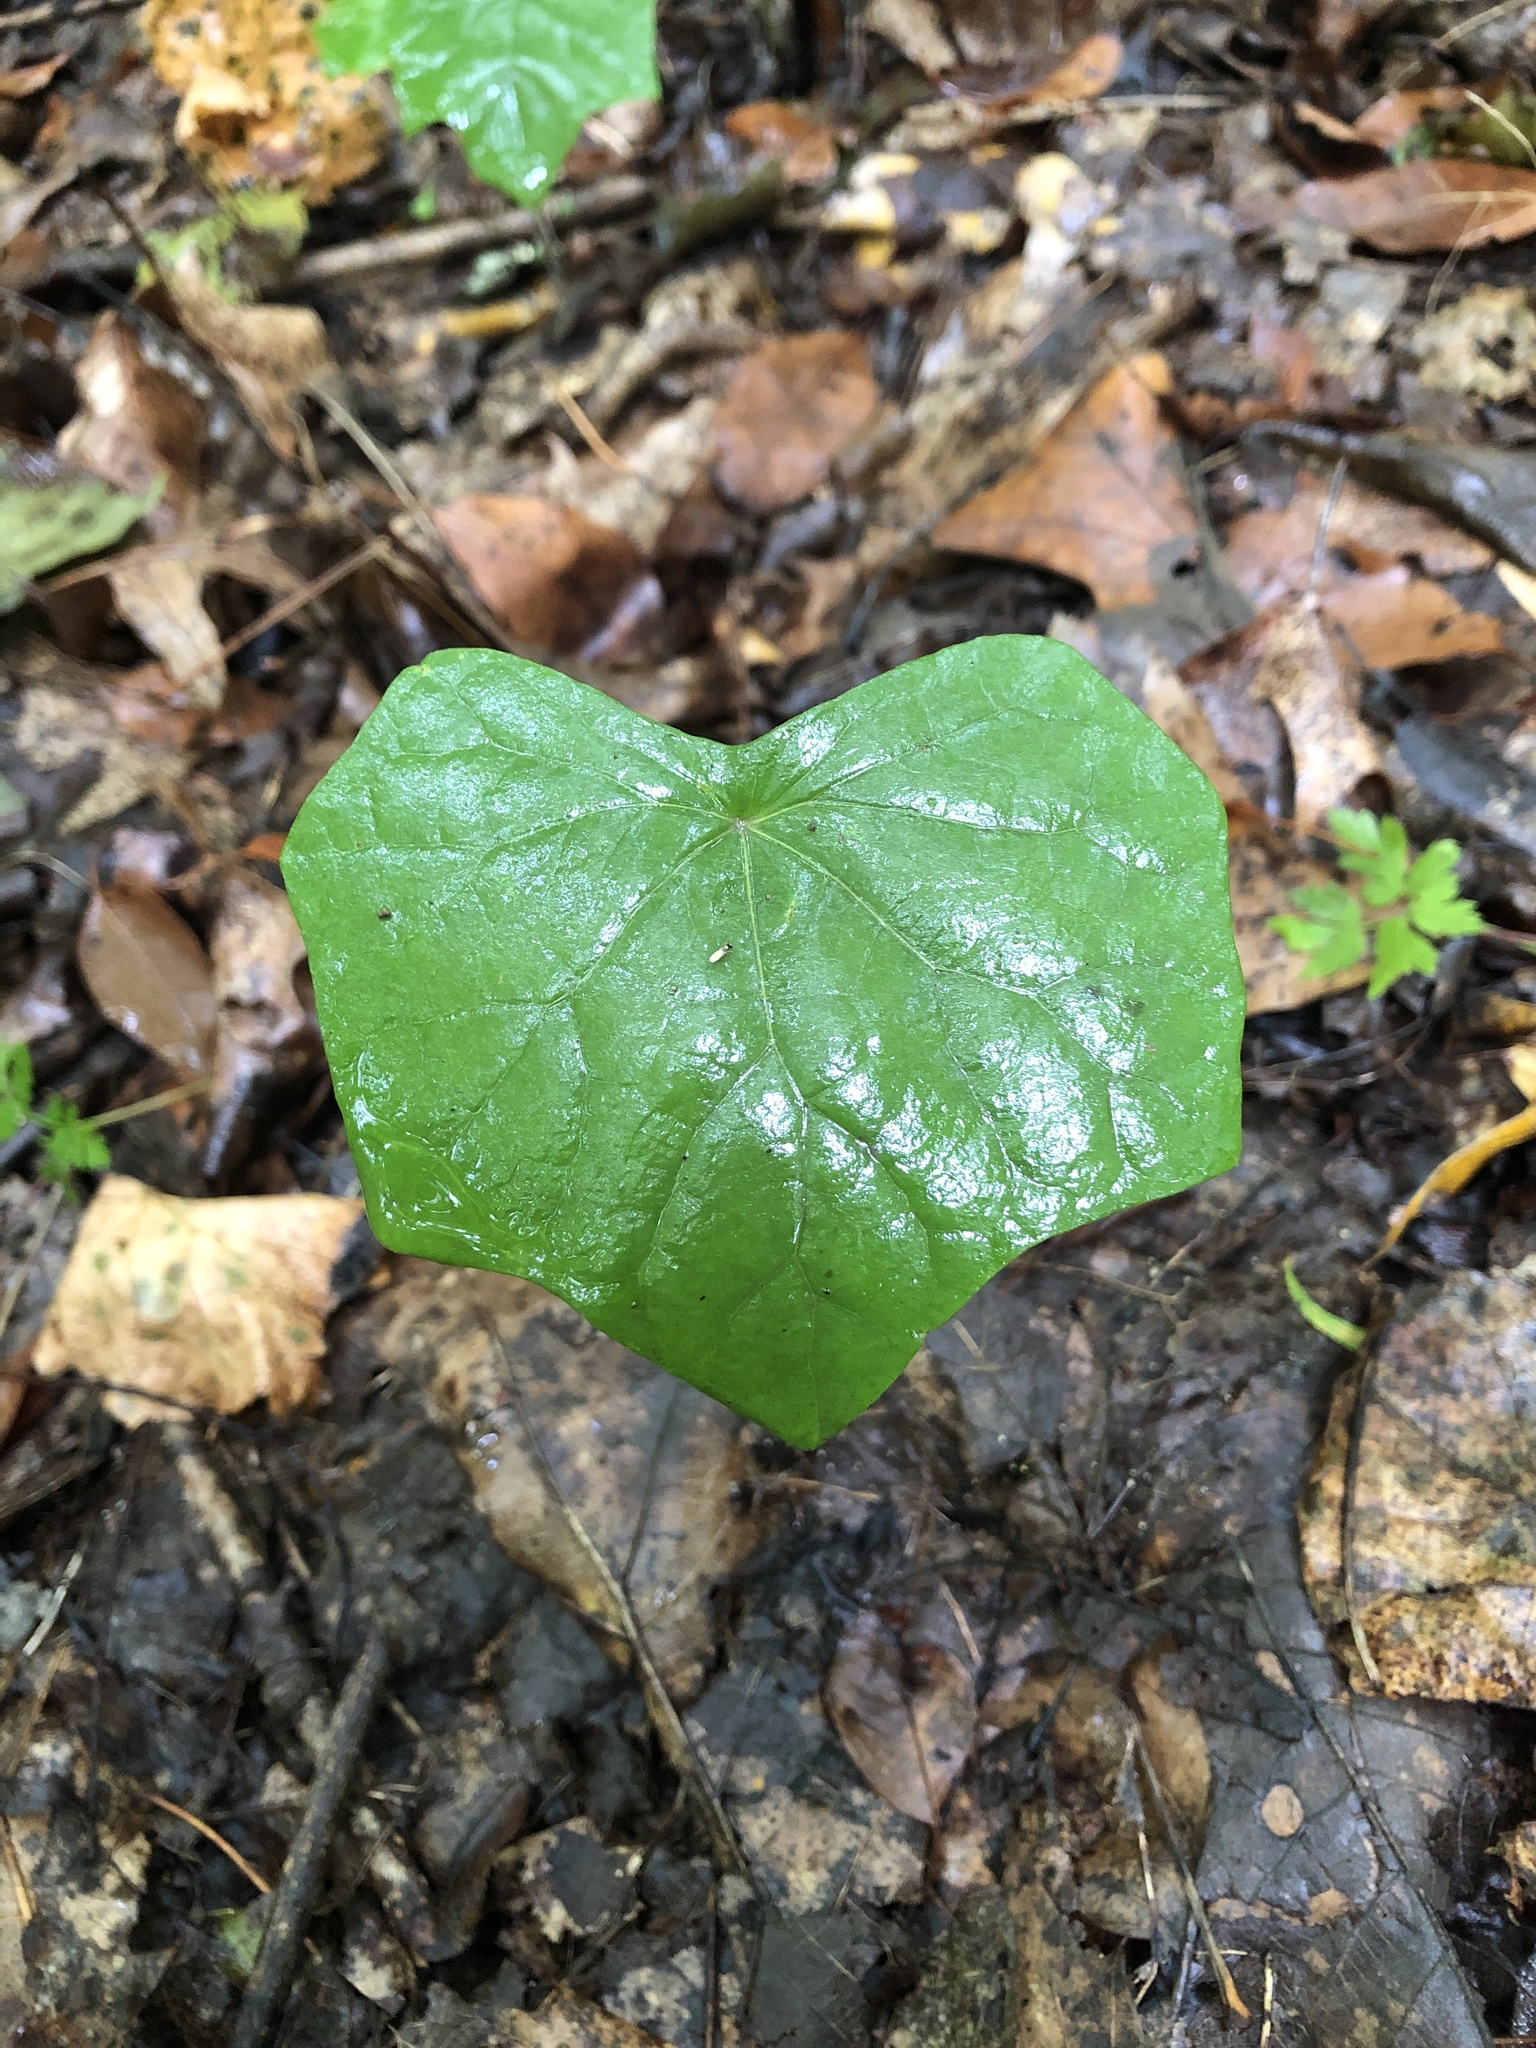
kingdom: Plantae
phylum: Tracheophyta
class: Magnoliopsida
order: Ranunculales
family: Menispermaceae
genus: Menispermum
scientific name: Menispermum canadense
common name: Moonseed
